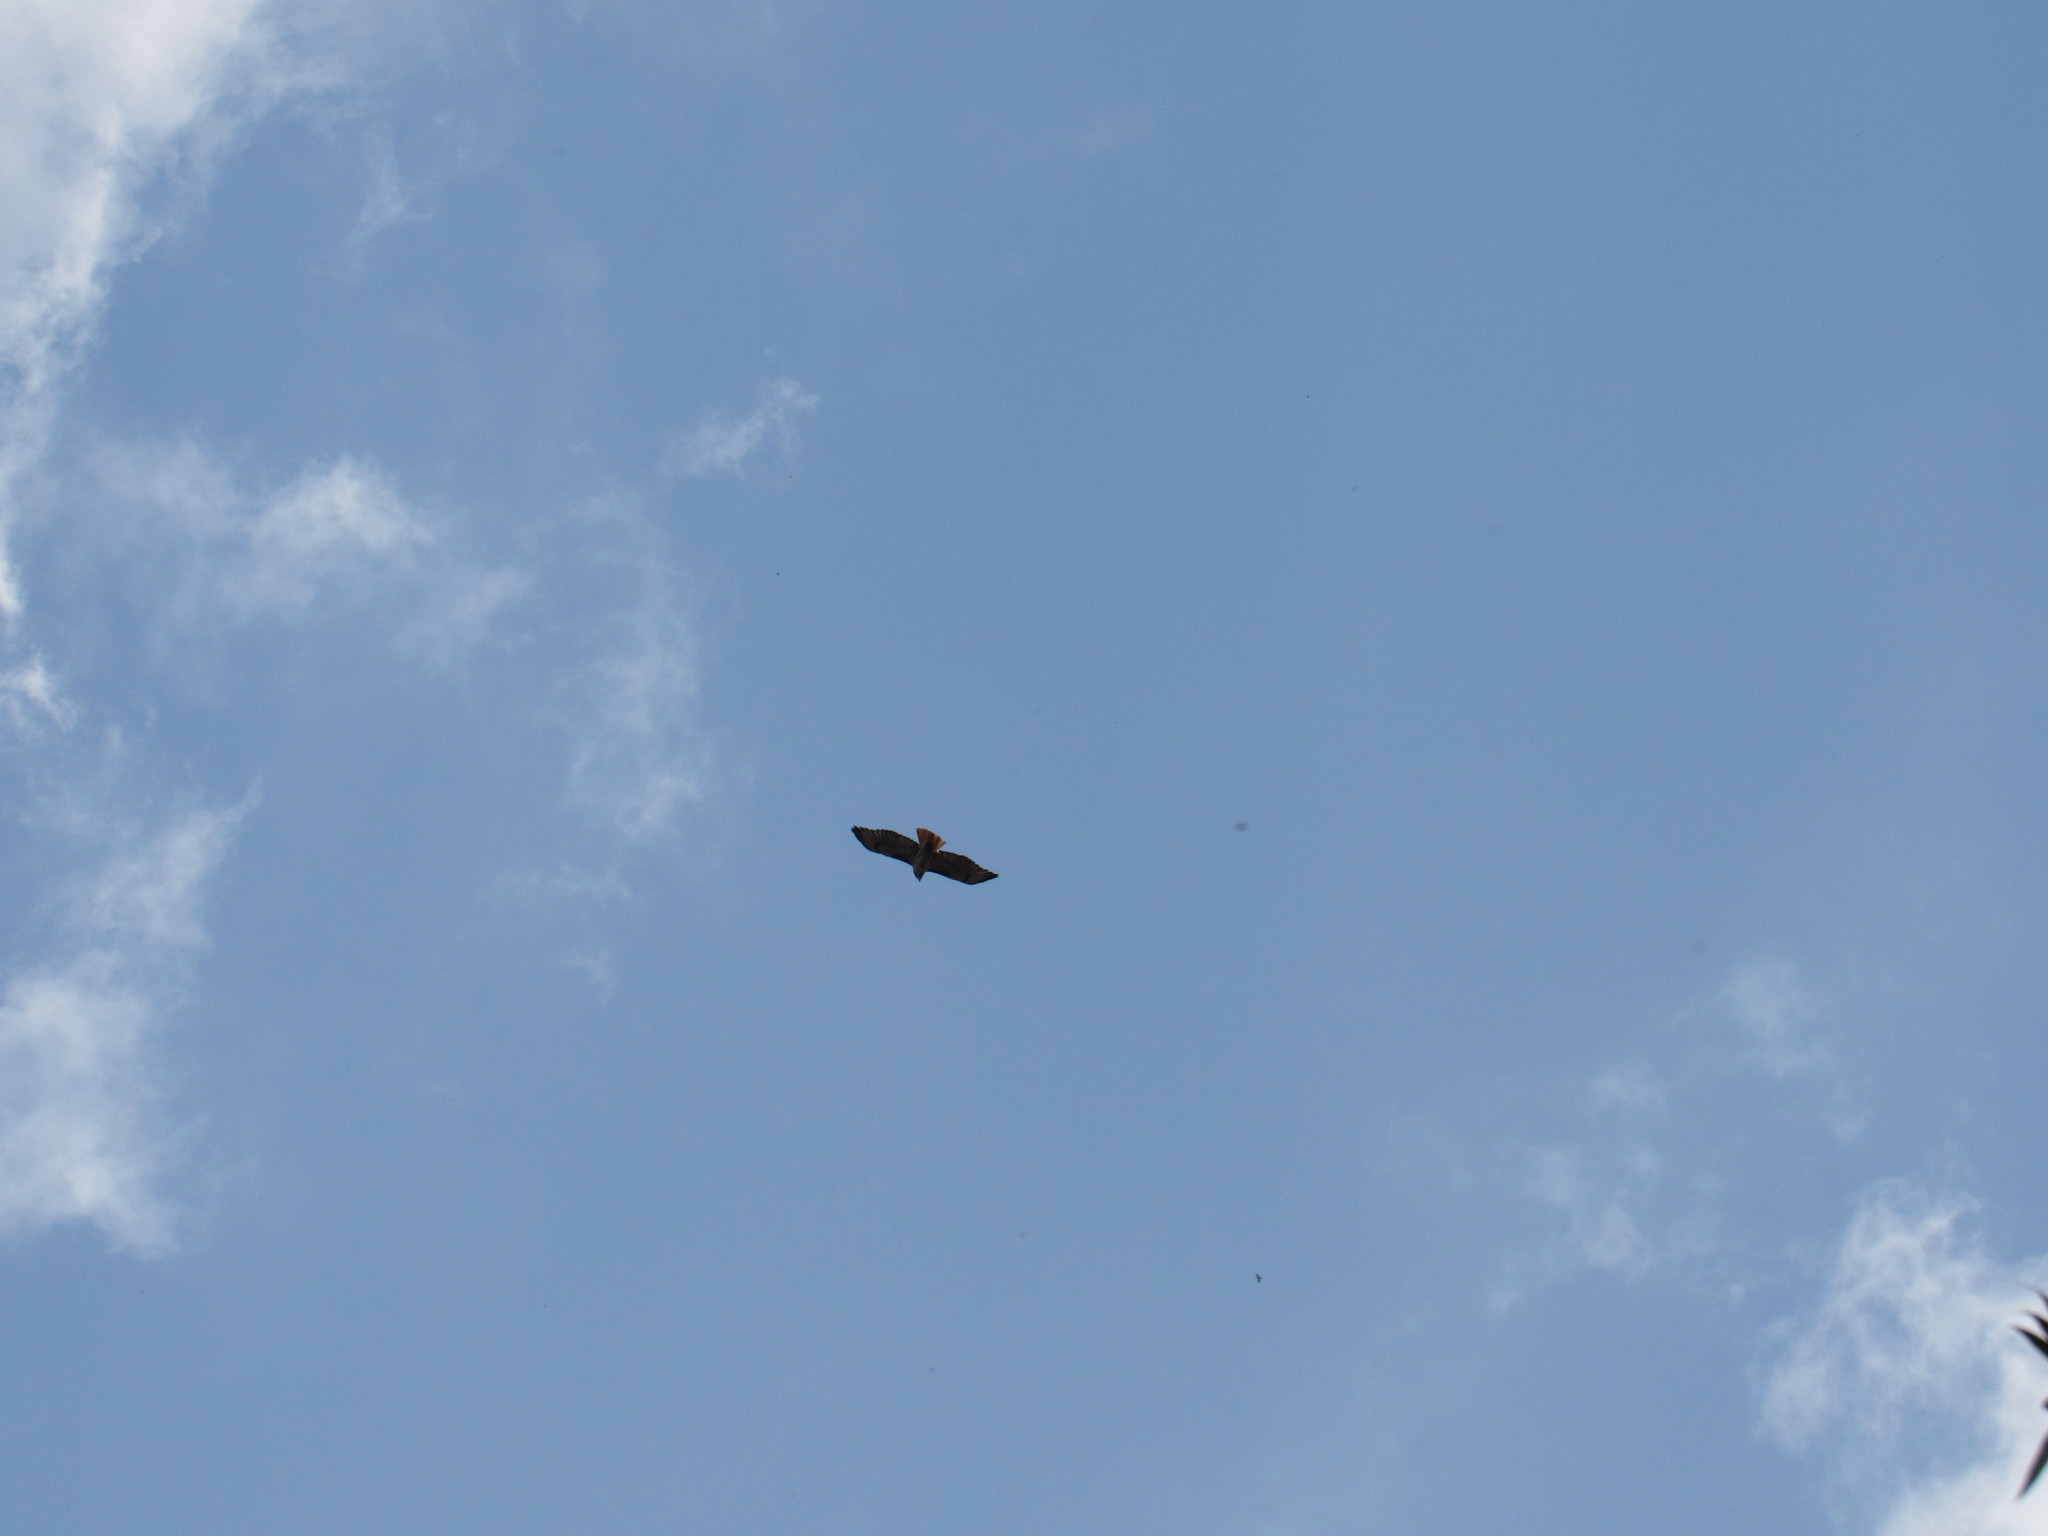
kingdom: Animalia
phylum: Chordata
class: Aves
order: Accipitriformes
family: Accipitridae
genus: Buteo
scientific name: Buteo jamaicensis
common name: Red-tailed hawk
